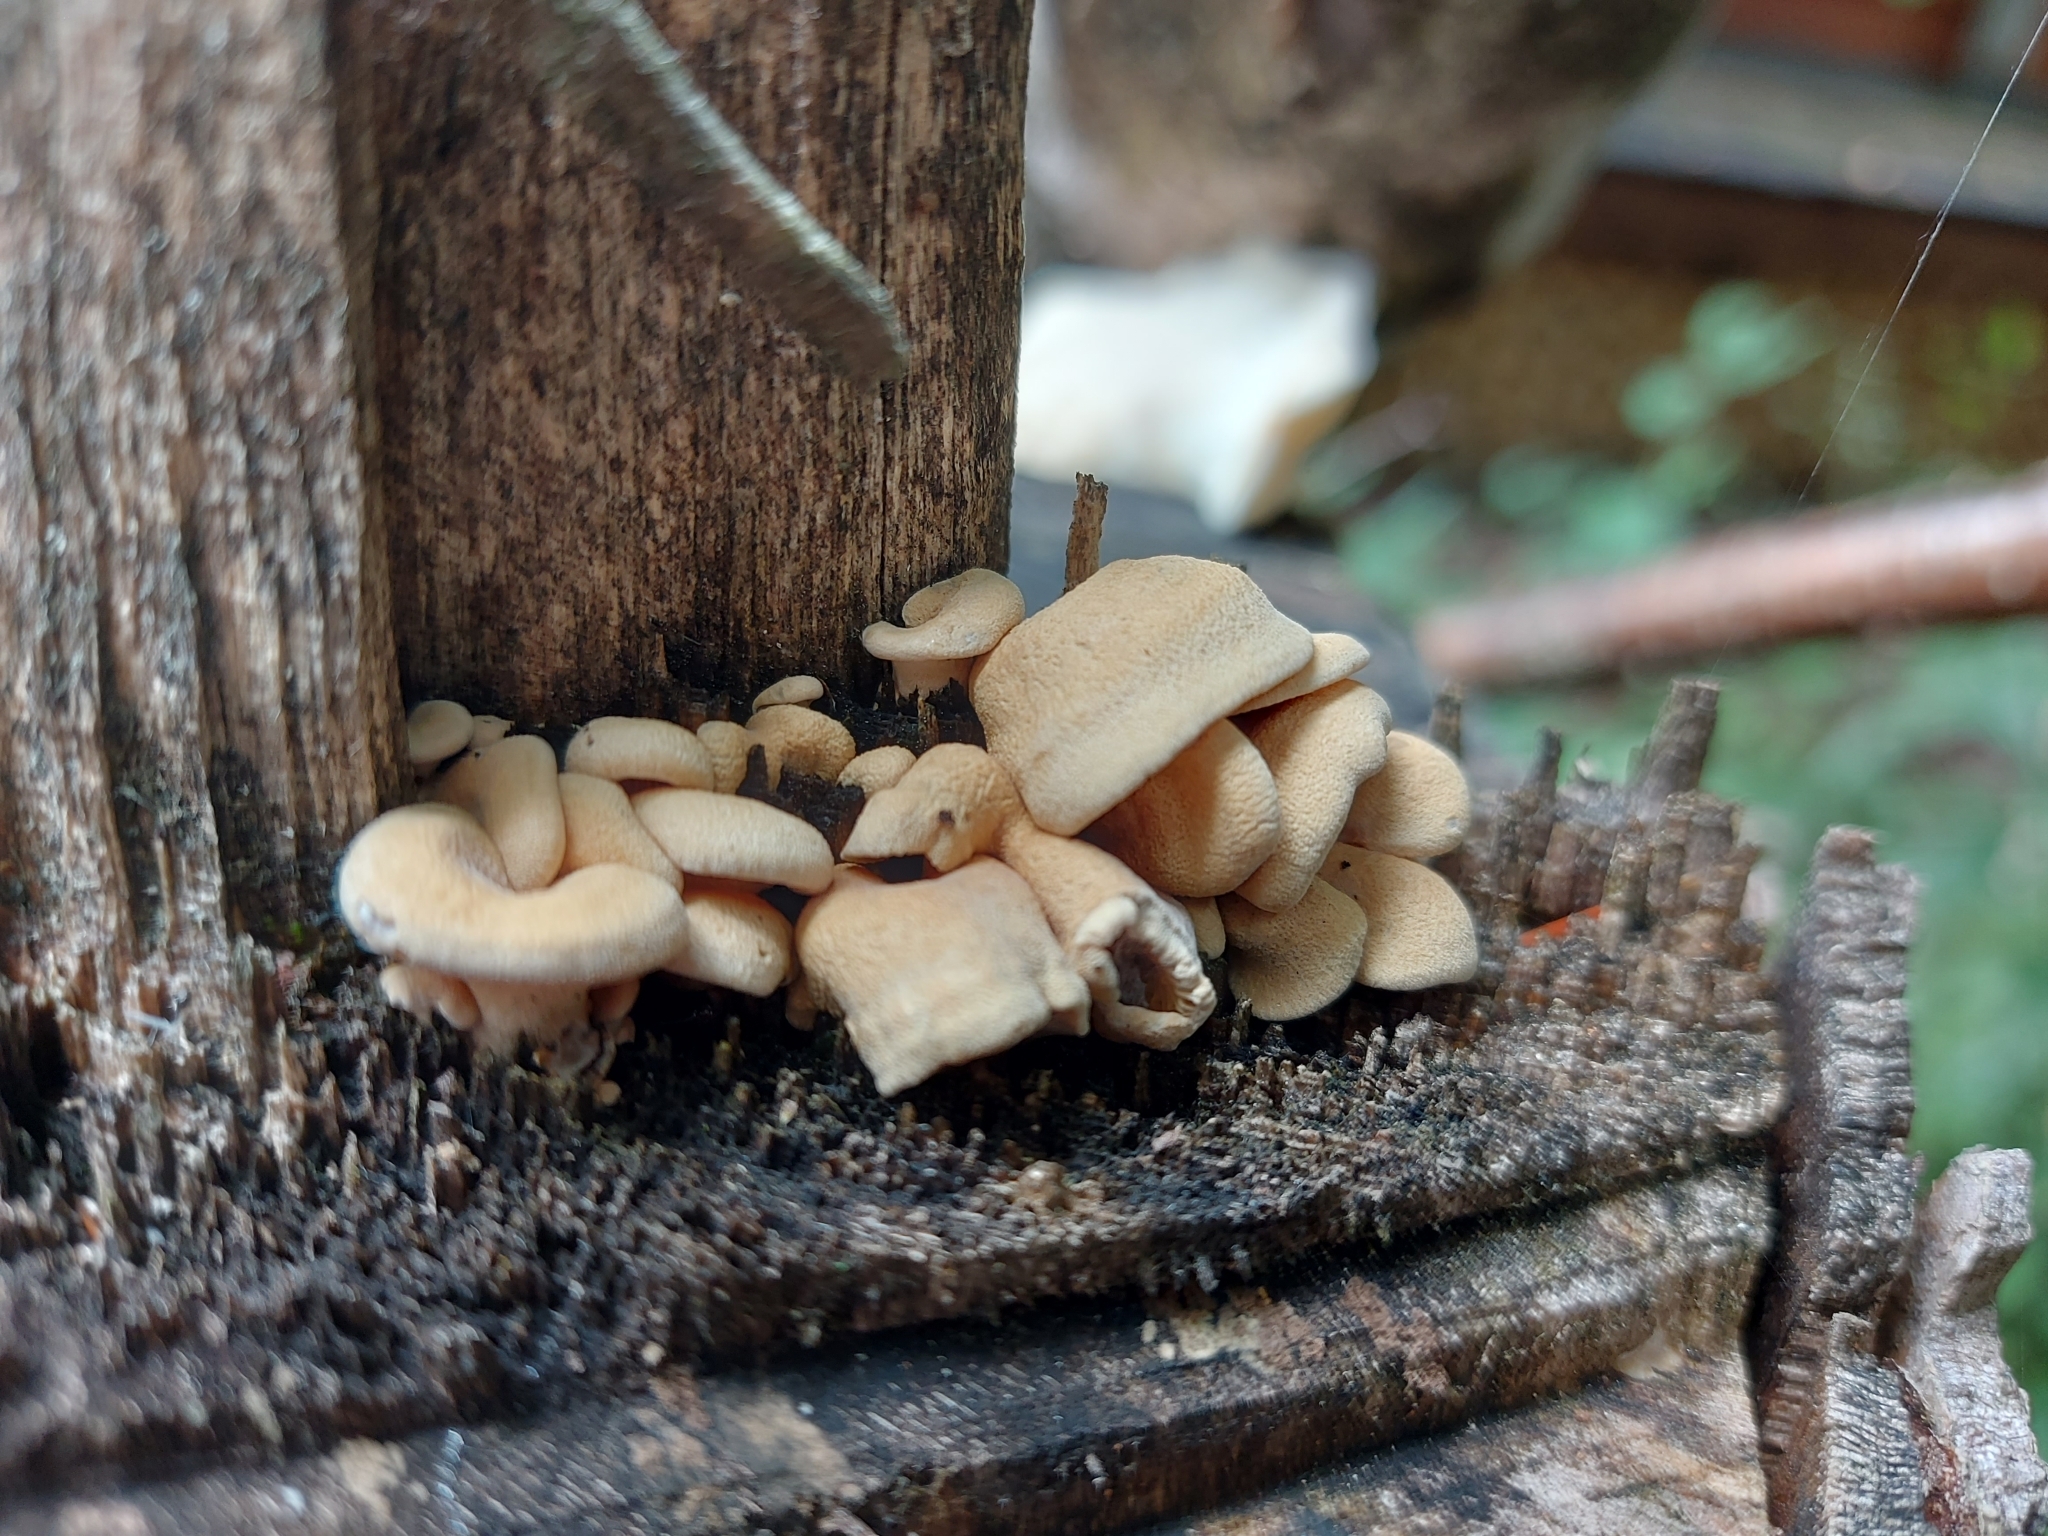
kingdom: Fungi
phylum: Basidiomycota
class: Agaricomycetes
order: Agaricales
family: Mycenaceae
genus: Panellus
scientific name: Panellus stipticus
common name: Bitter oysterling
